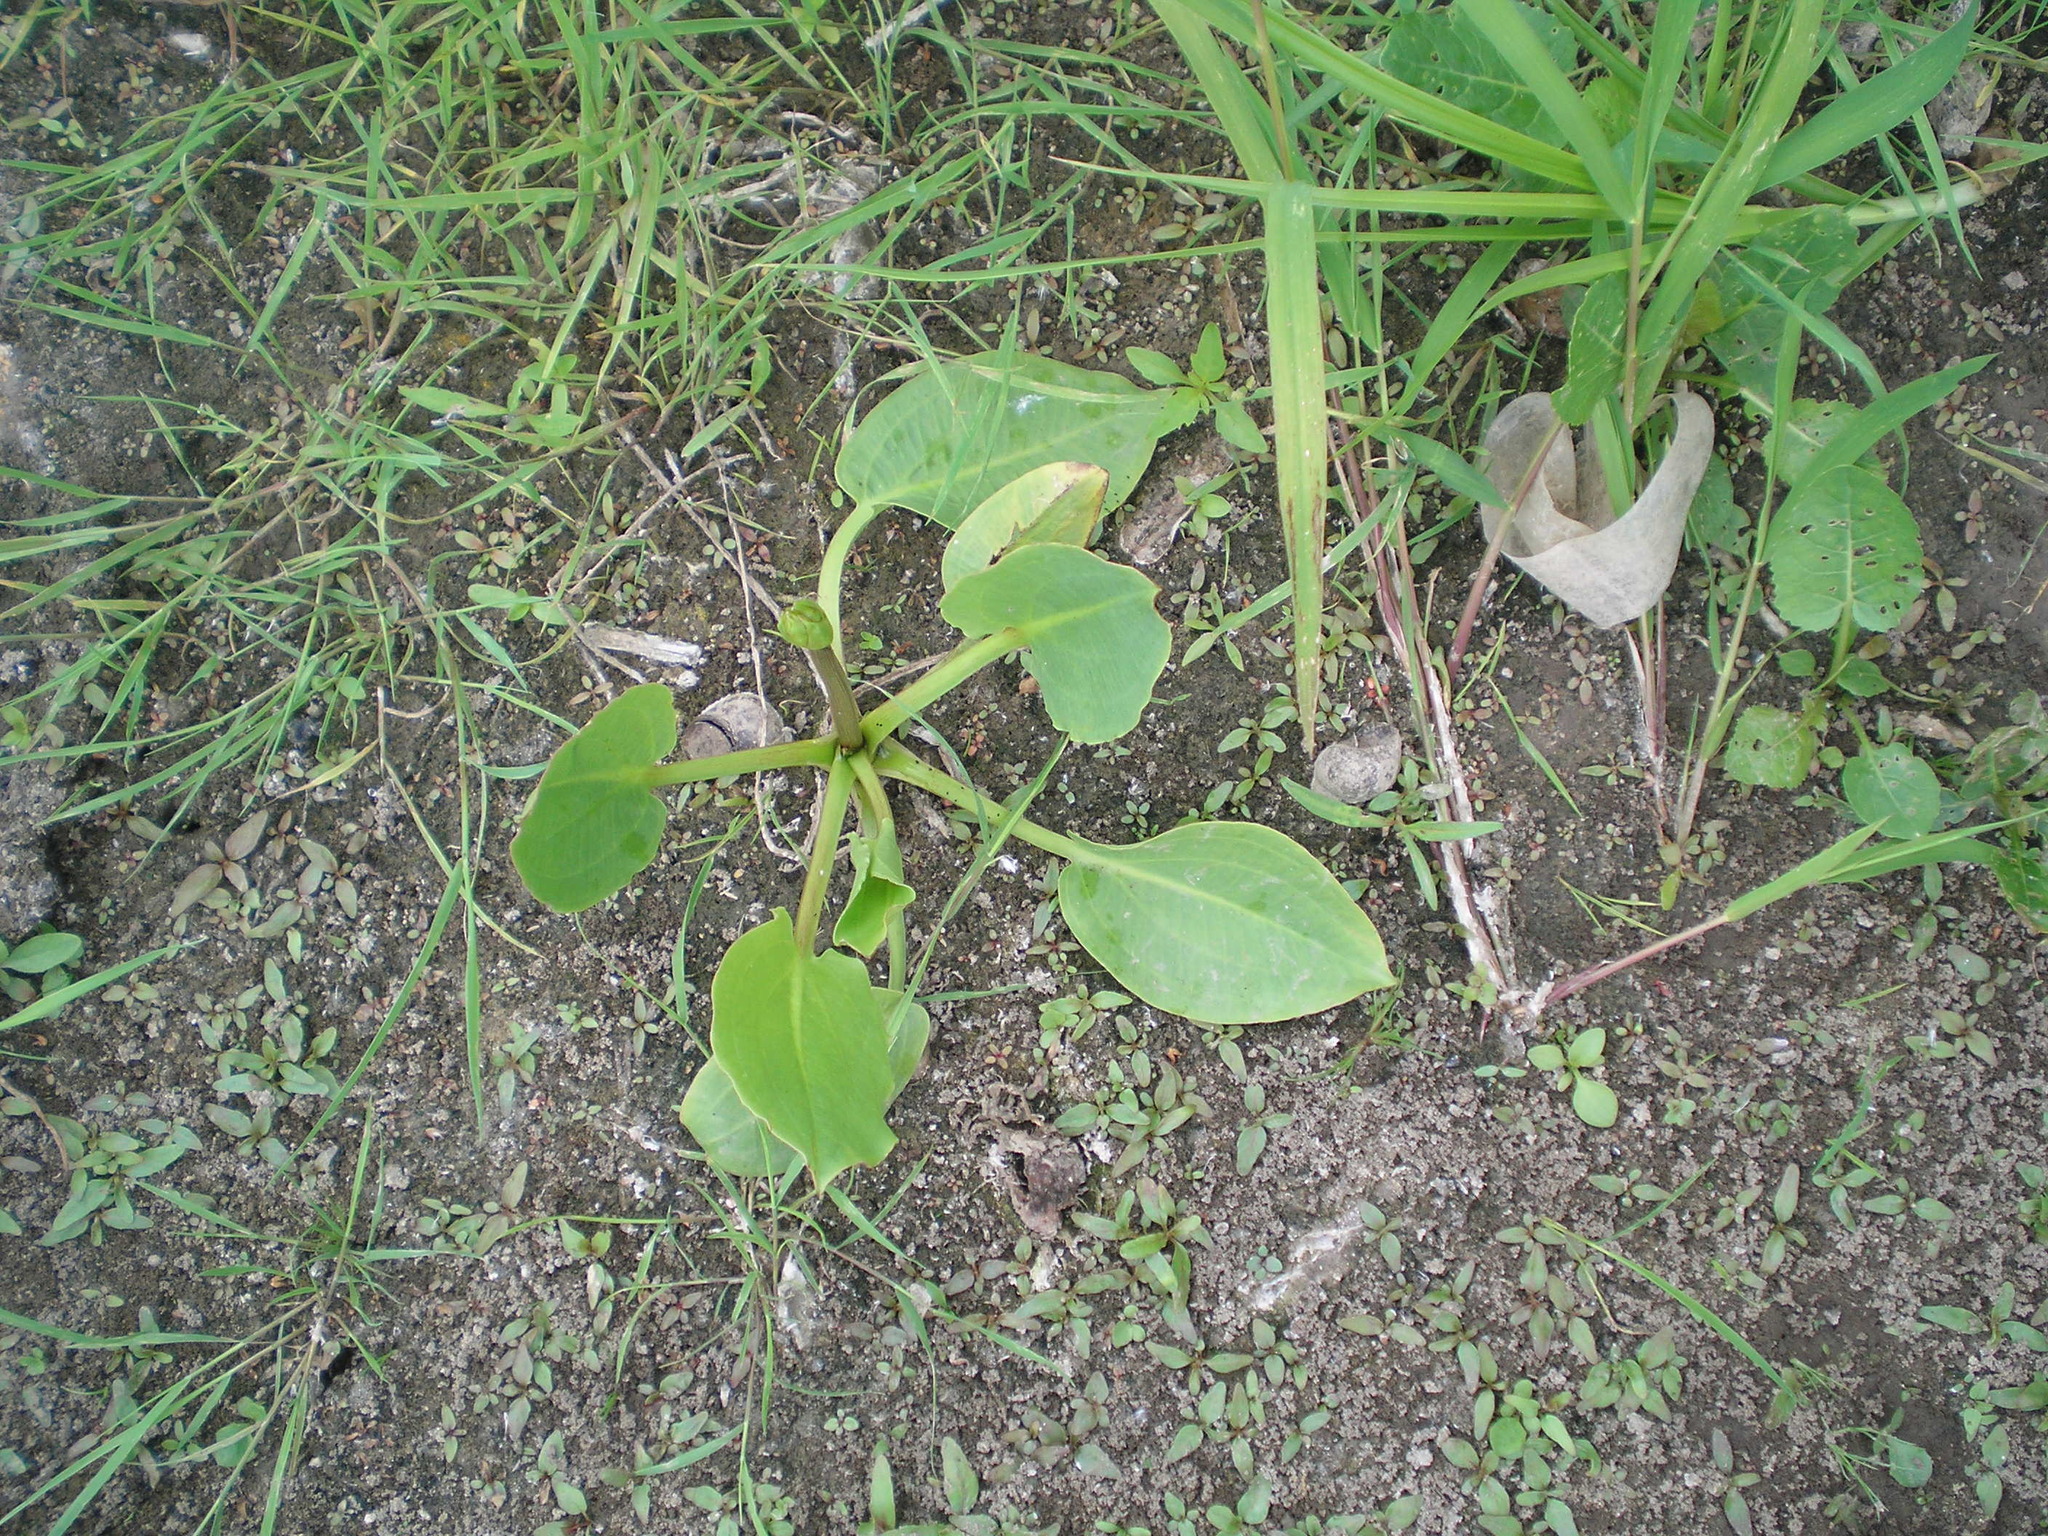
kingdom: Plantae
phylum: Tracheophyta
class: Liliopsida
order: Alismatales
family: Alismataceae
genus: Alisma
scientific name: Alisma plantago-aquatica
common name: Water-plantain
